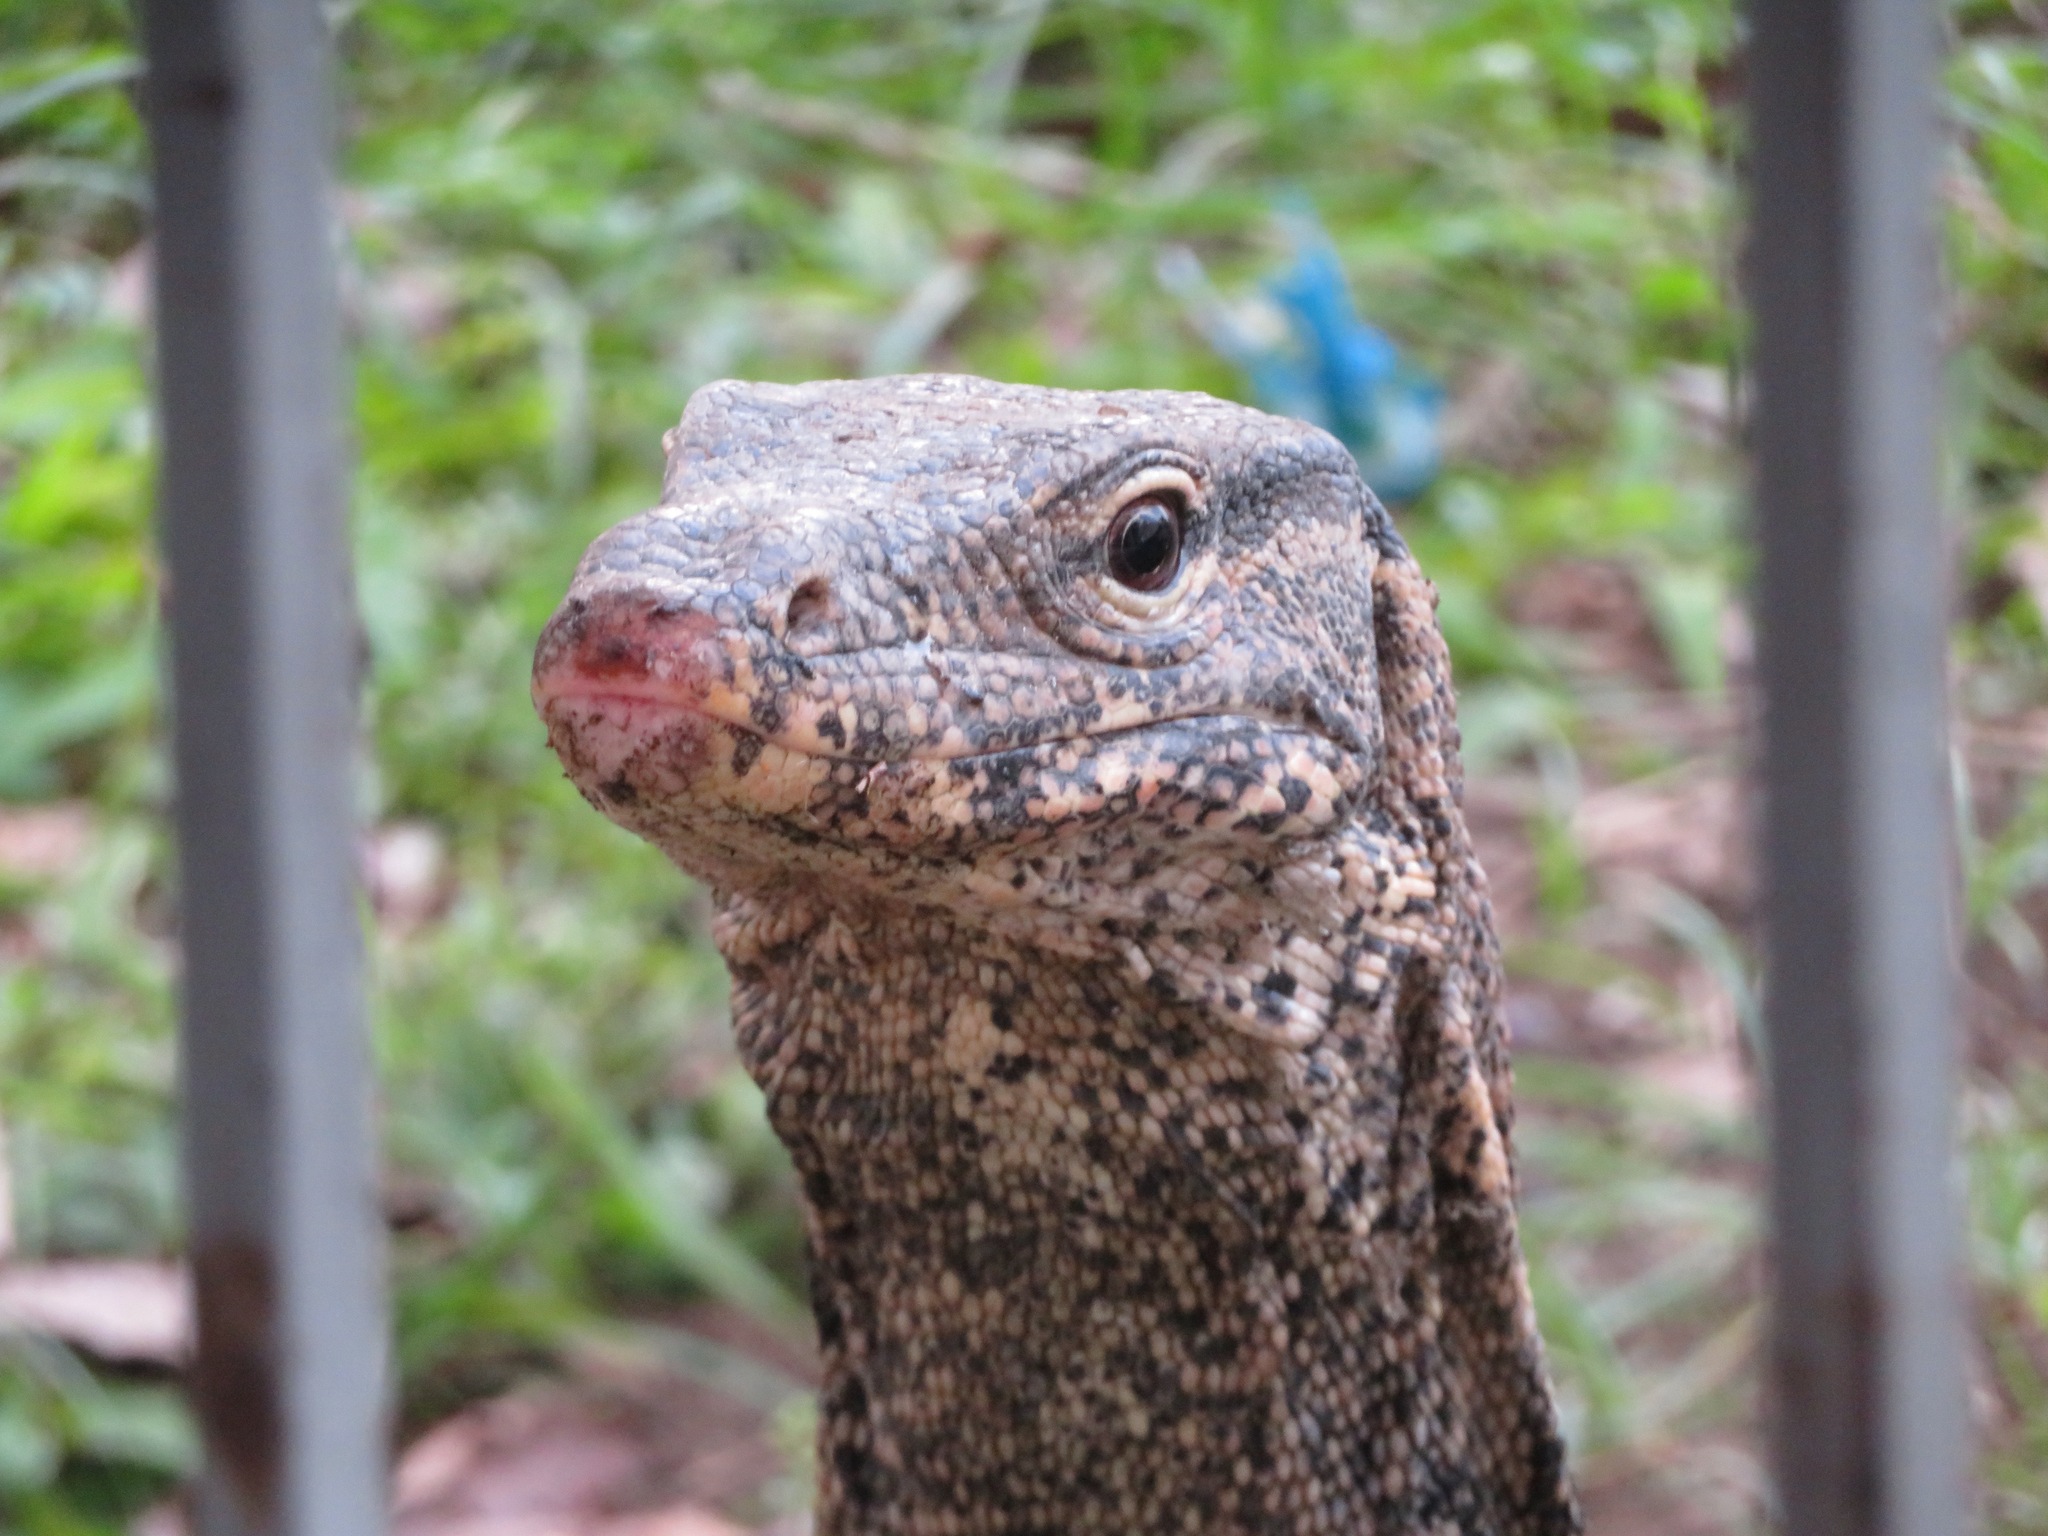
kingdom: Animalia
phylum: Chordata
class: Squamata
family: Varanidae
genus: Varanus
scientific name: Varanus salvator
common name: Common water monitor
